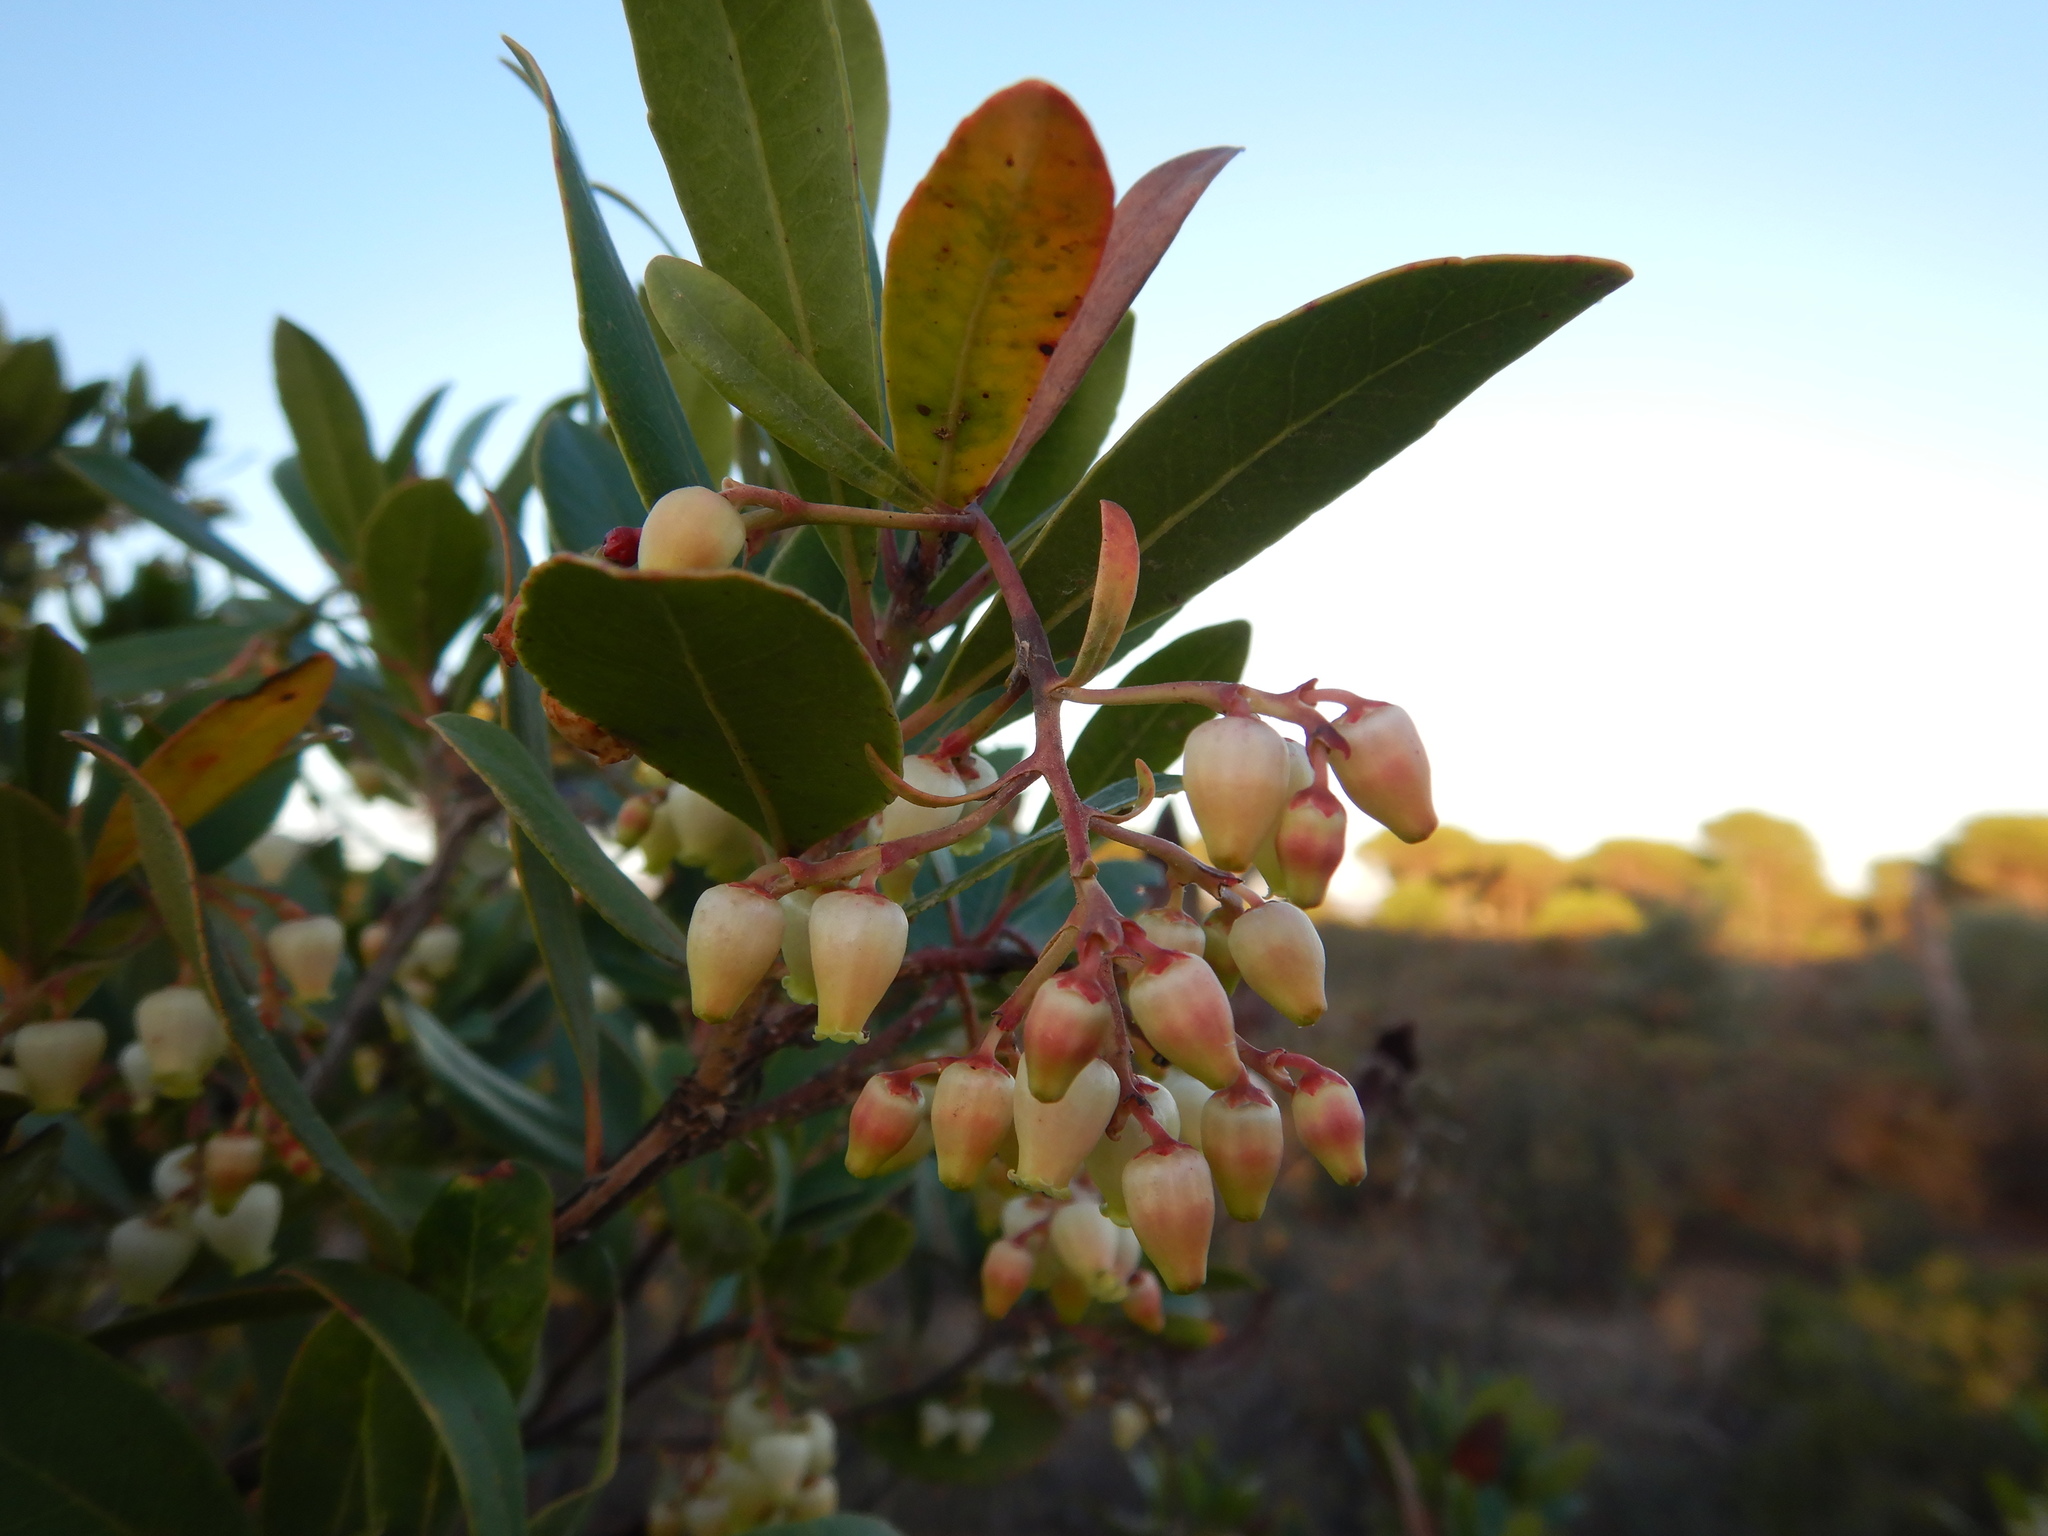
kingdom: Plantae
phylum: Tracheophyta
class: Magnoliopsida
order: Ericales
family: Ericaceae
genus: Arbutus
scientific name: Arbutus unedo
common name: Strawberry-tree
